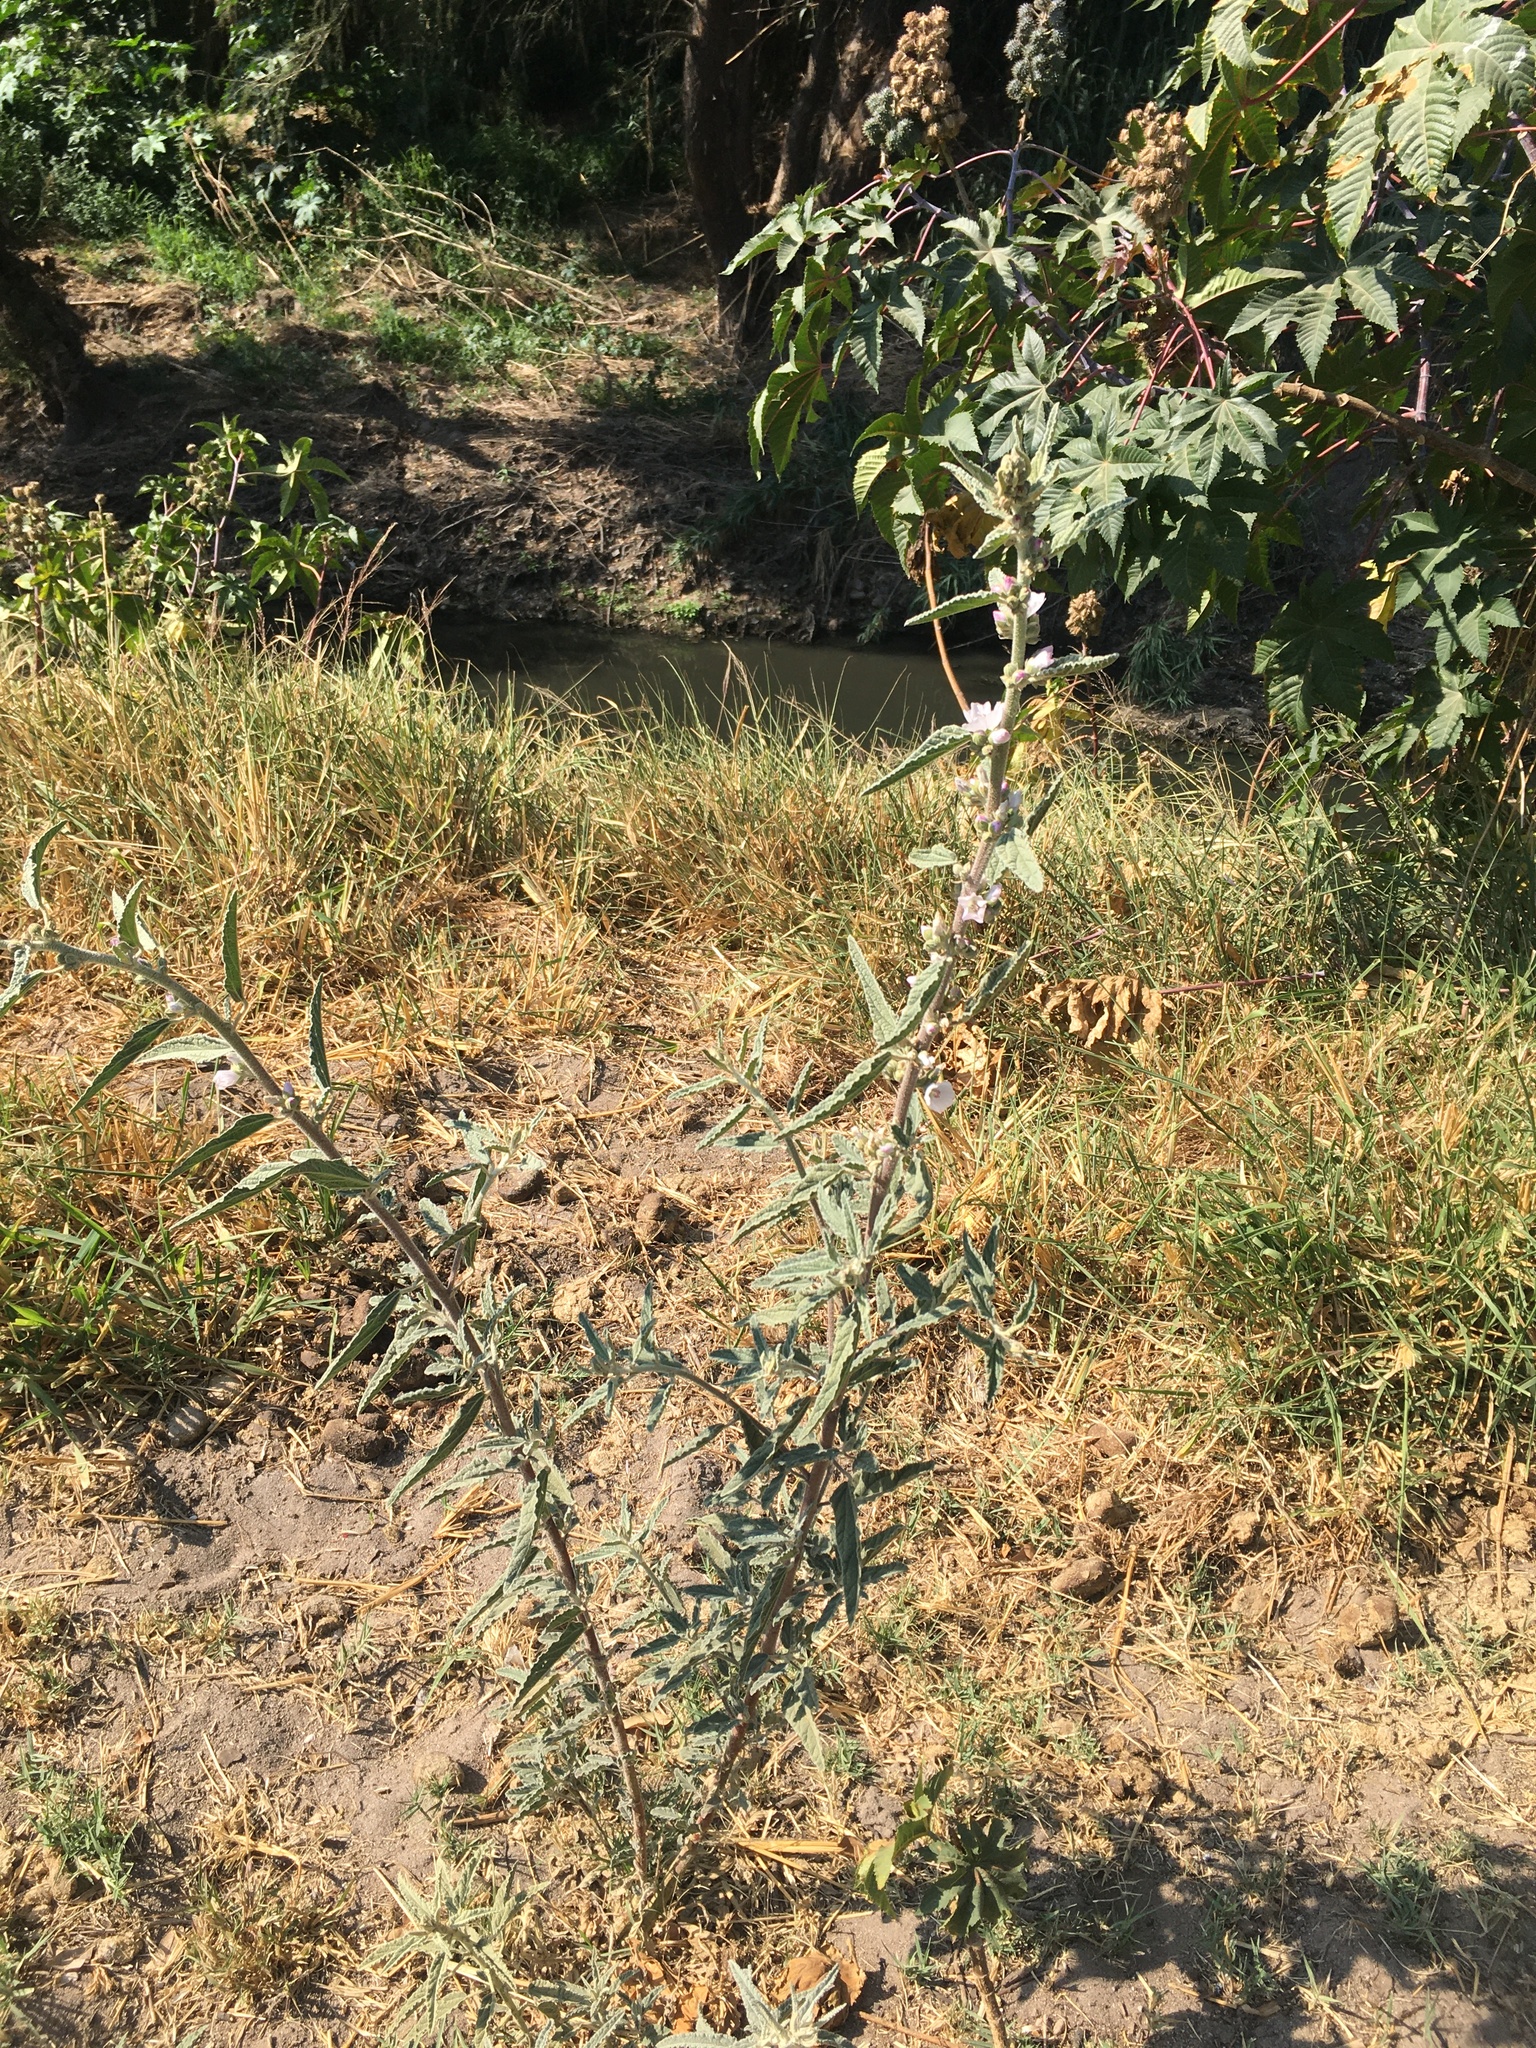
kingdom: Plantae
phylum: Tracheophyta
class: Magnoliopsida
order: Malvales
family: Malvaceae
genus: Sphaeralcea
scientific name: Sphaeralcea angustifolia
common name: Copper globe-mallow
